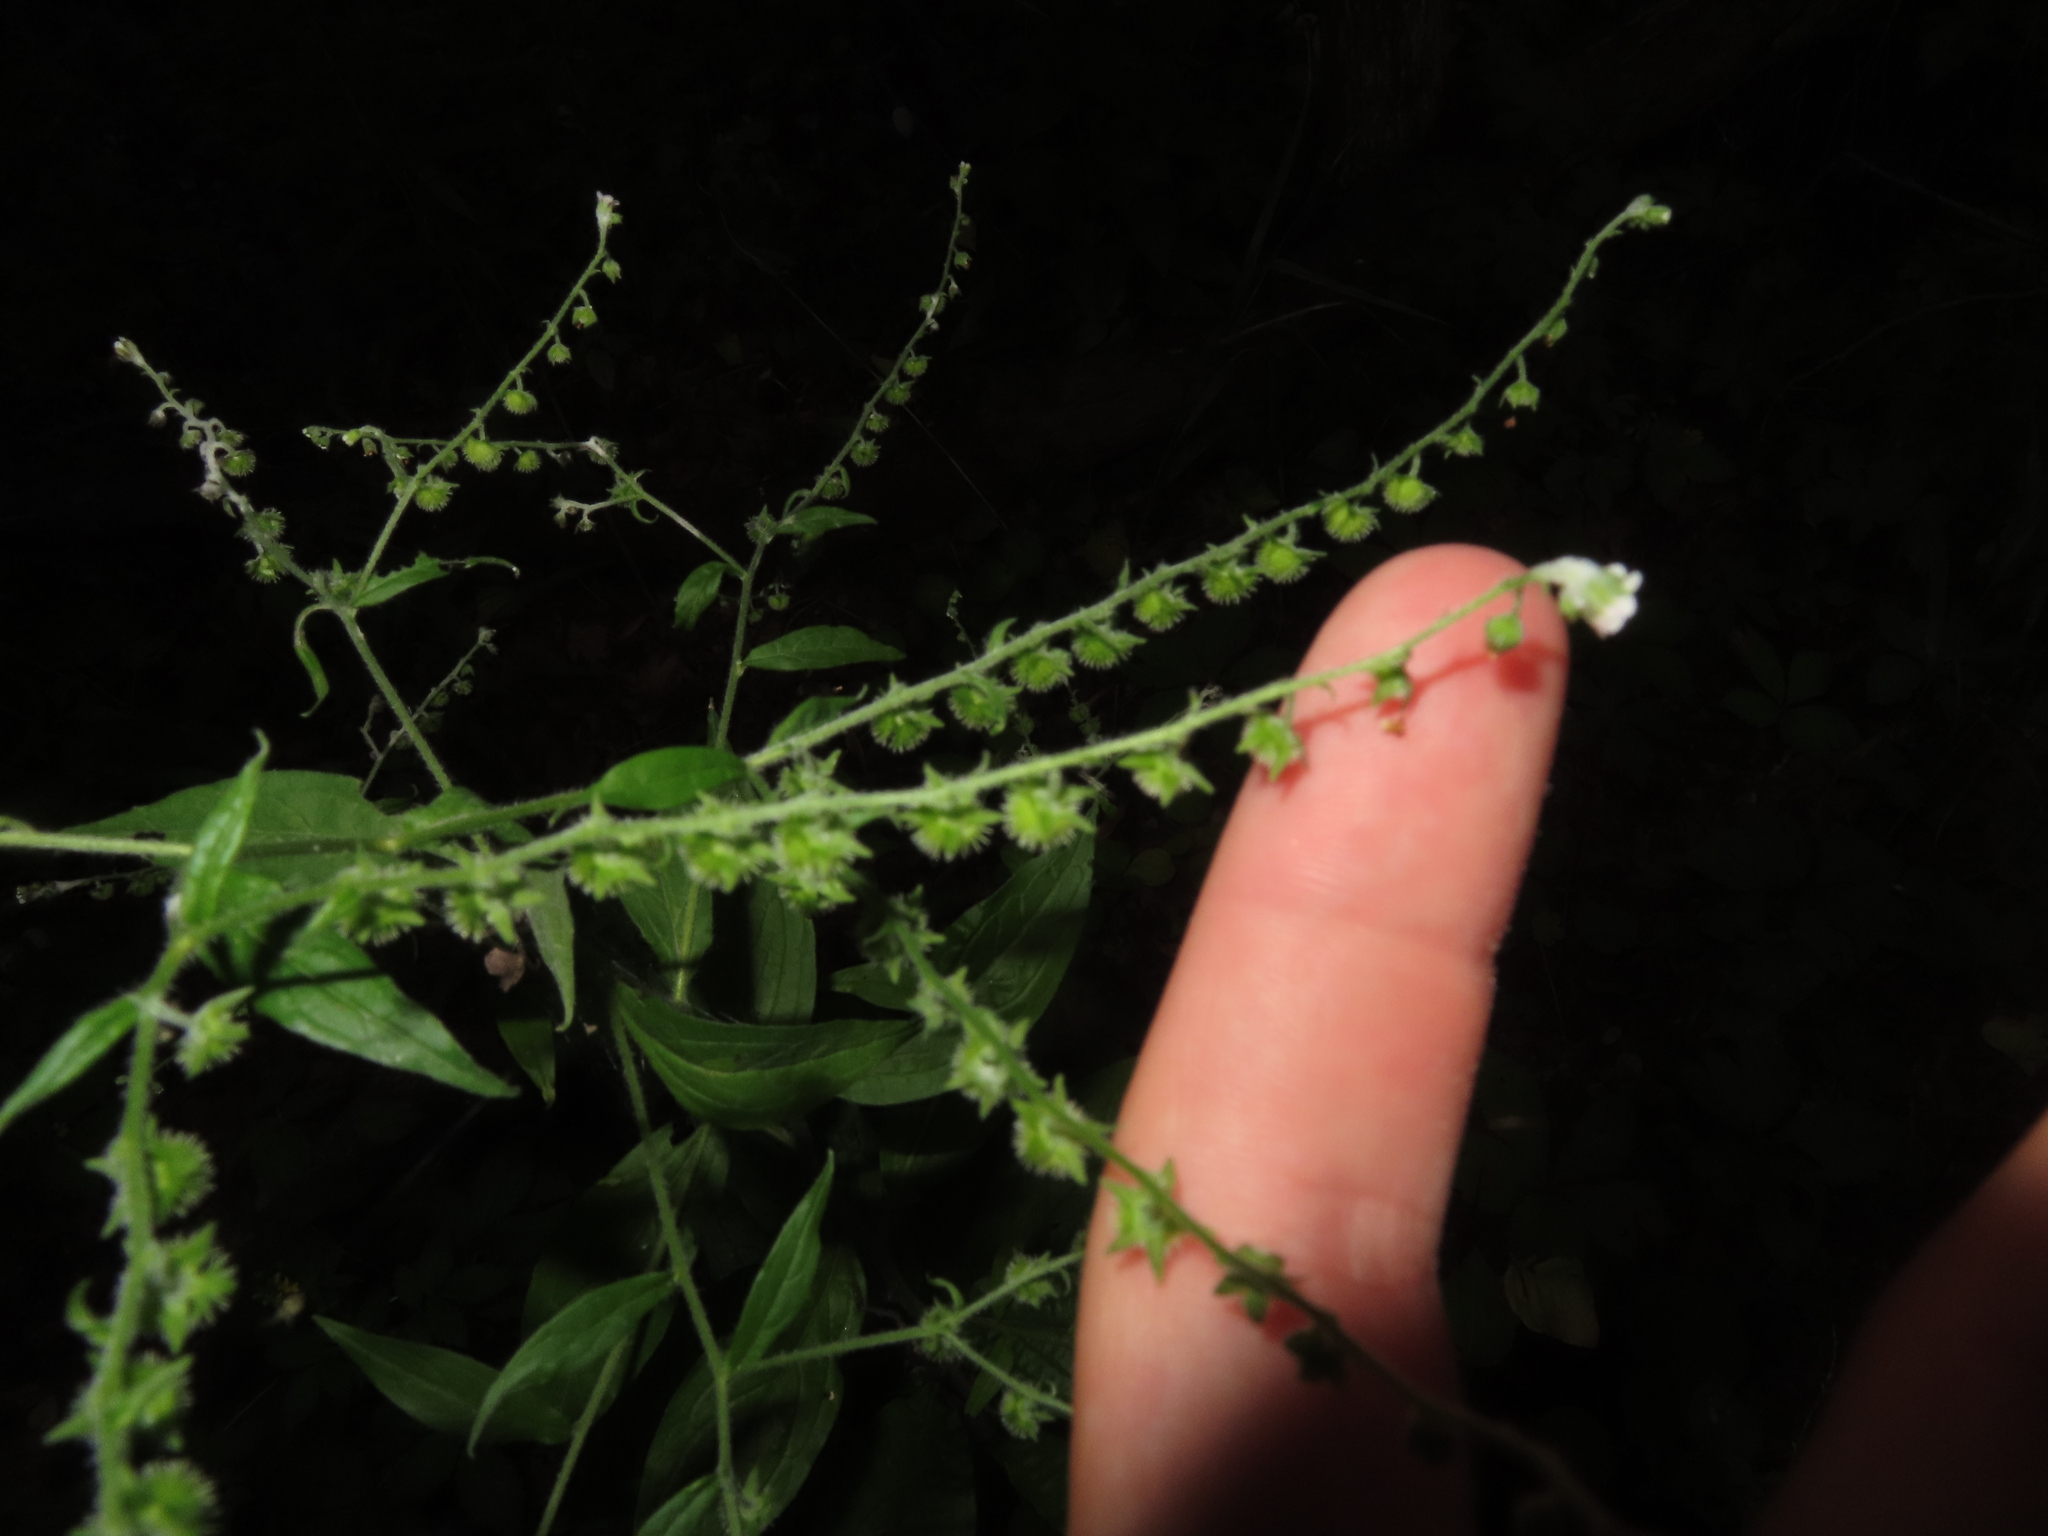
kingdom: Plantae
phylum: Tracheophyta
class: Magnoliopsida
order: Boraginales
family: Boraginaceae
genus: Hackelia
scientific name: Hackelia virginiana
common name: Beggar's-lice
